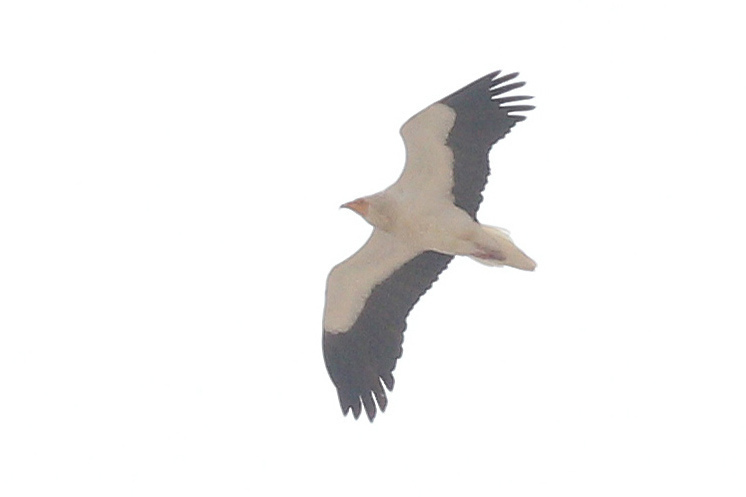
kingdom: Animalia
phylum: Chordata
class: Aves
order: Accipitriformes
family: Accipitridae
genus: Neophron
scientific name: Neophron percnopterus
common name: Egyptian vulture
